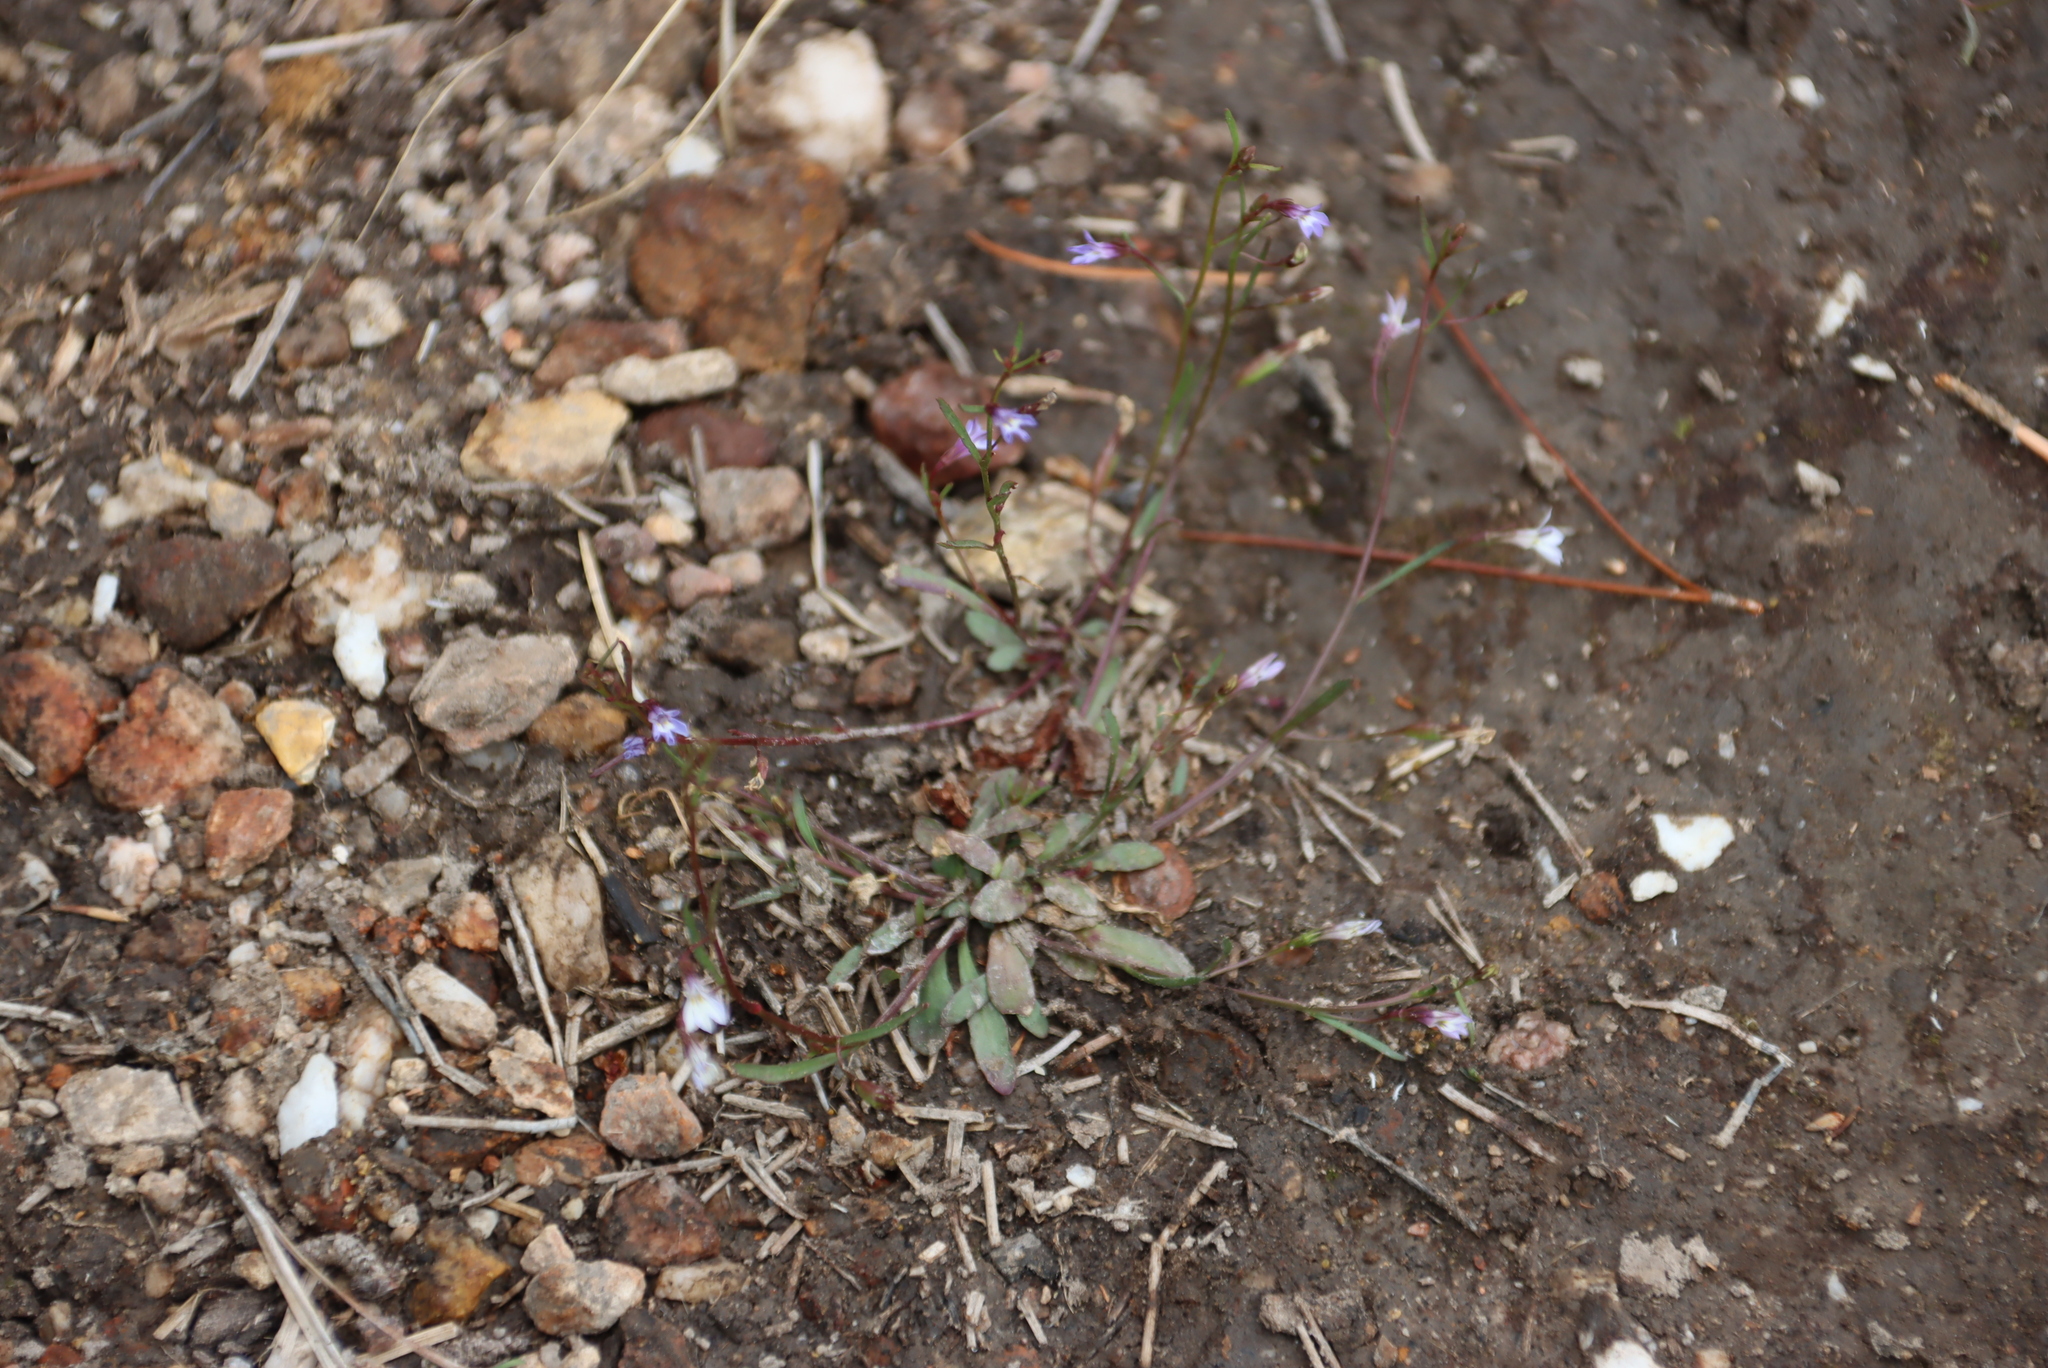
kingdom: Plantae
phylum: Tracheophyta
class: Magnoliopsida
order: Asterales
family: Campanulaceae
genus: Wimmerella
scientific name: Wimmerella arabidea
